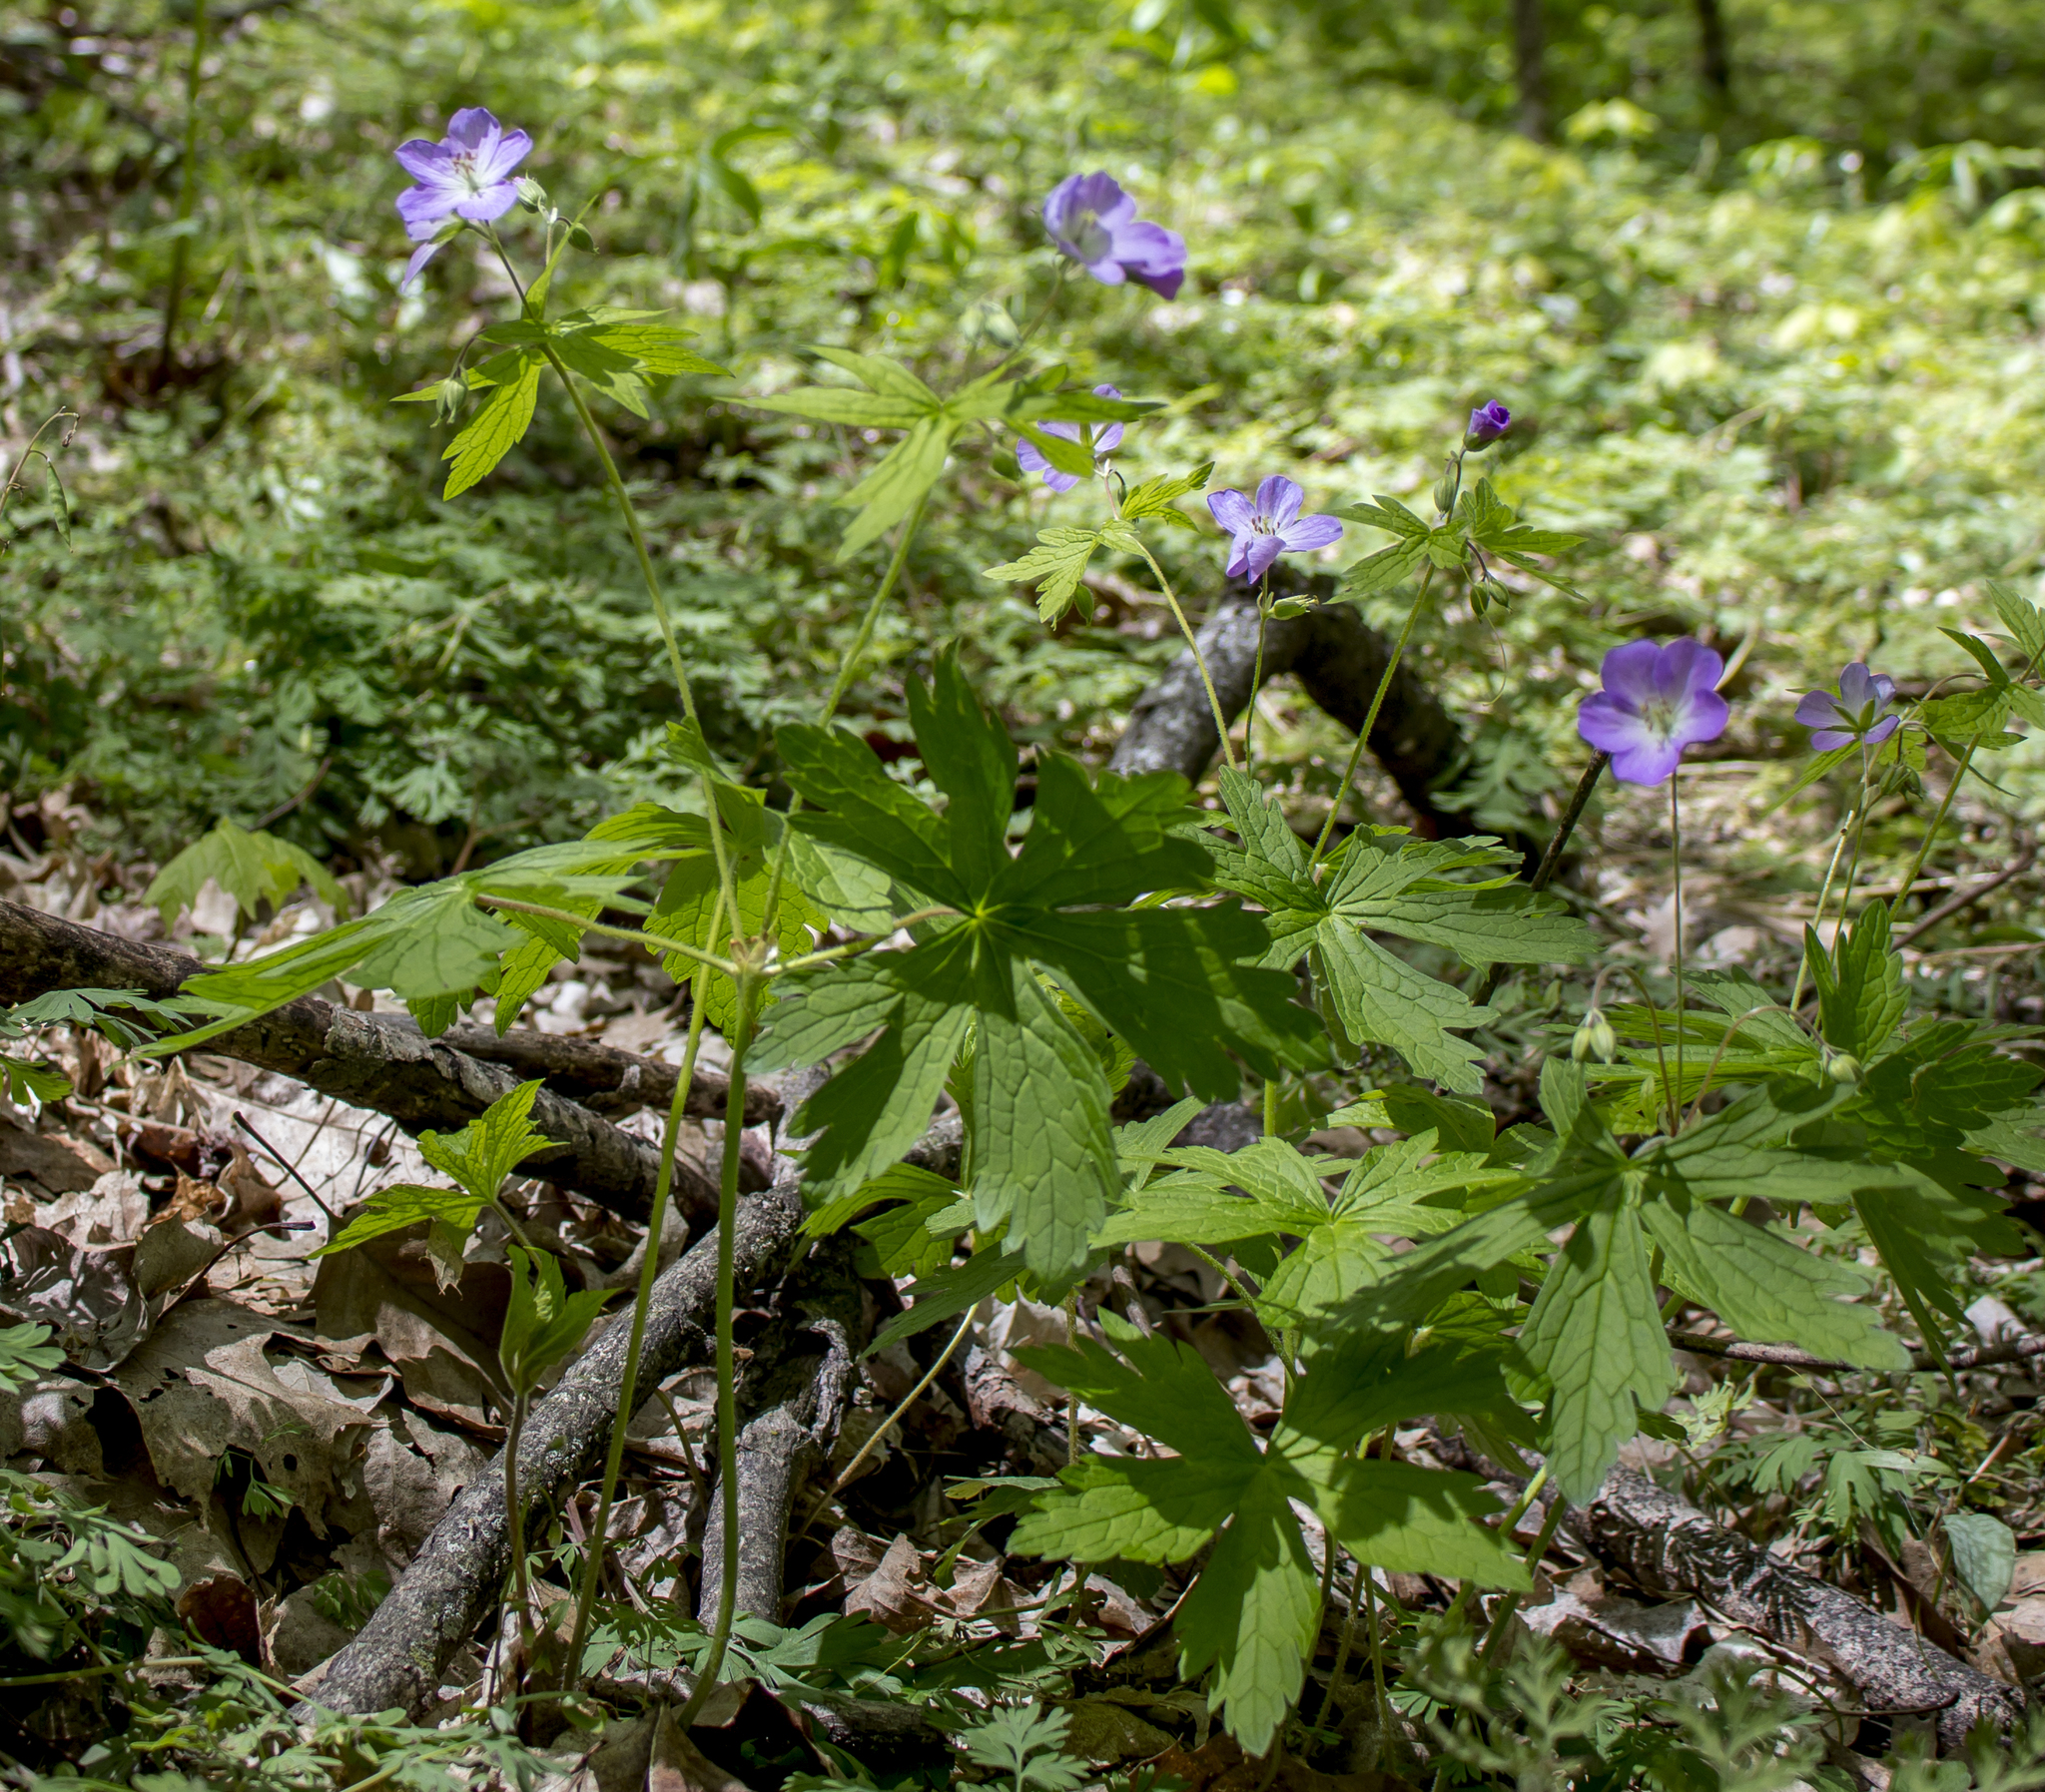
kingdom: Plantae
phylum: Tracheophyta
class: Magnoliopsida
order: Geraniales
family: Geraniaceae
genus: Geranium
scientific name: Geranium maculatum
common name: Spotted geranium
